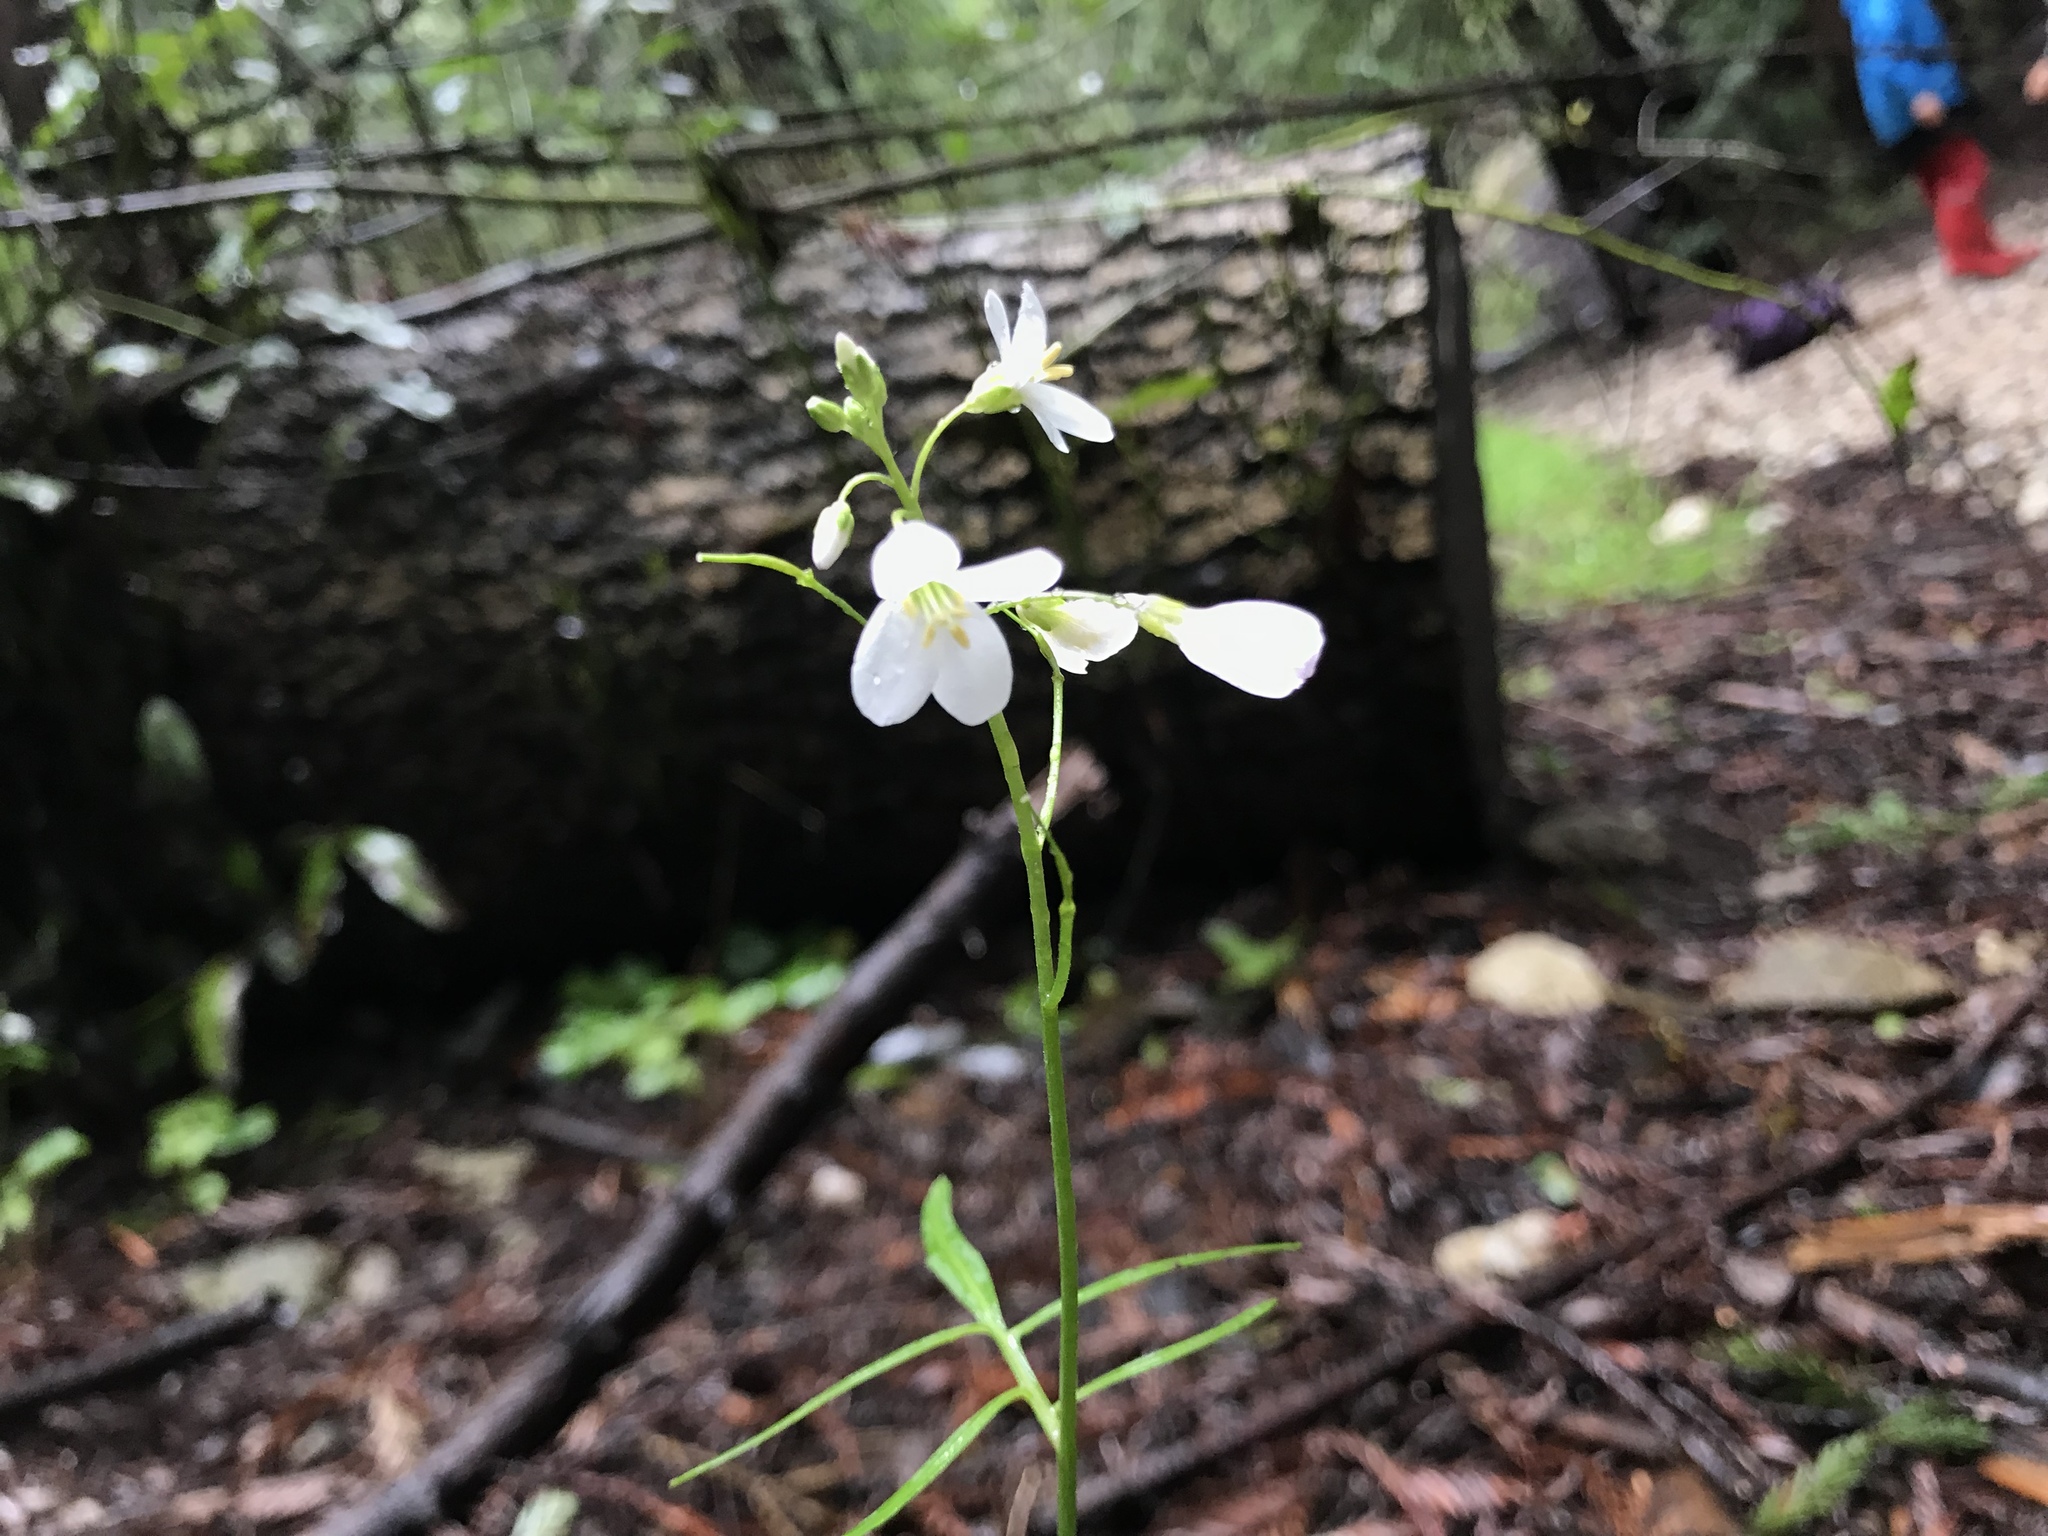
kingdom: Plantae
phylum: Tracheophyta
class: Magnoliopsida
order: Brassicales
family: Brassicaceae
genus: Cardamine
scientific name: Cardamine californica
